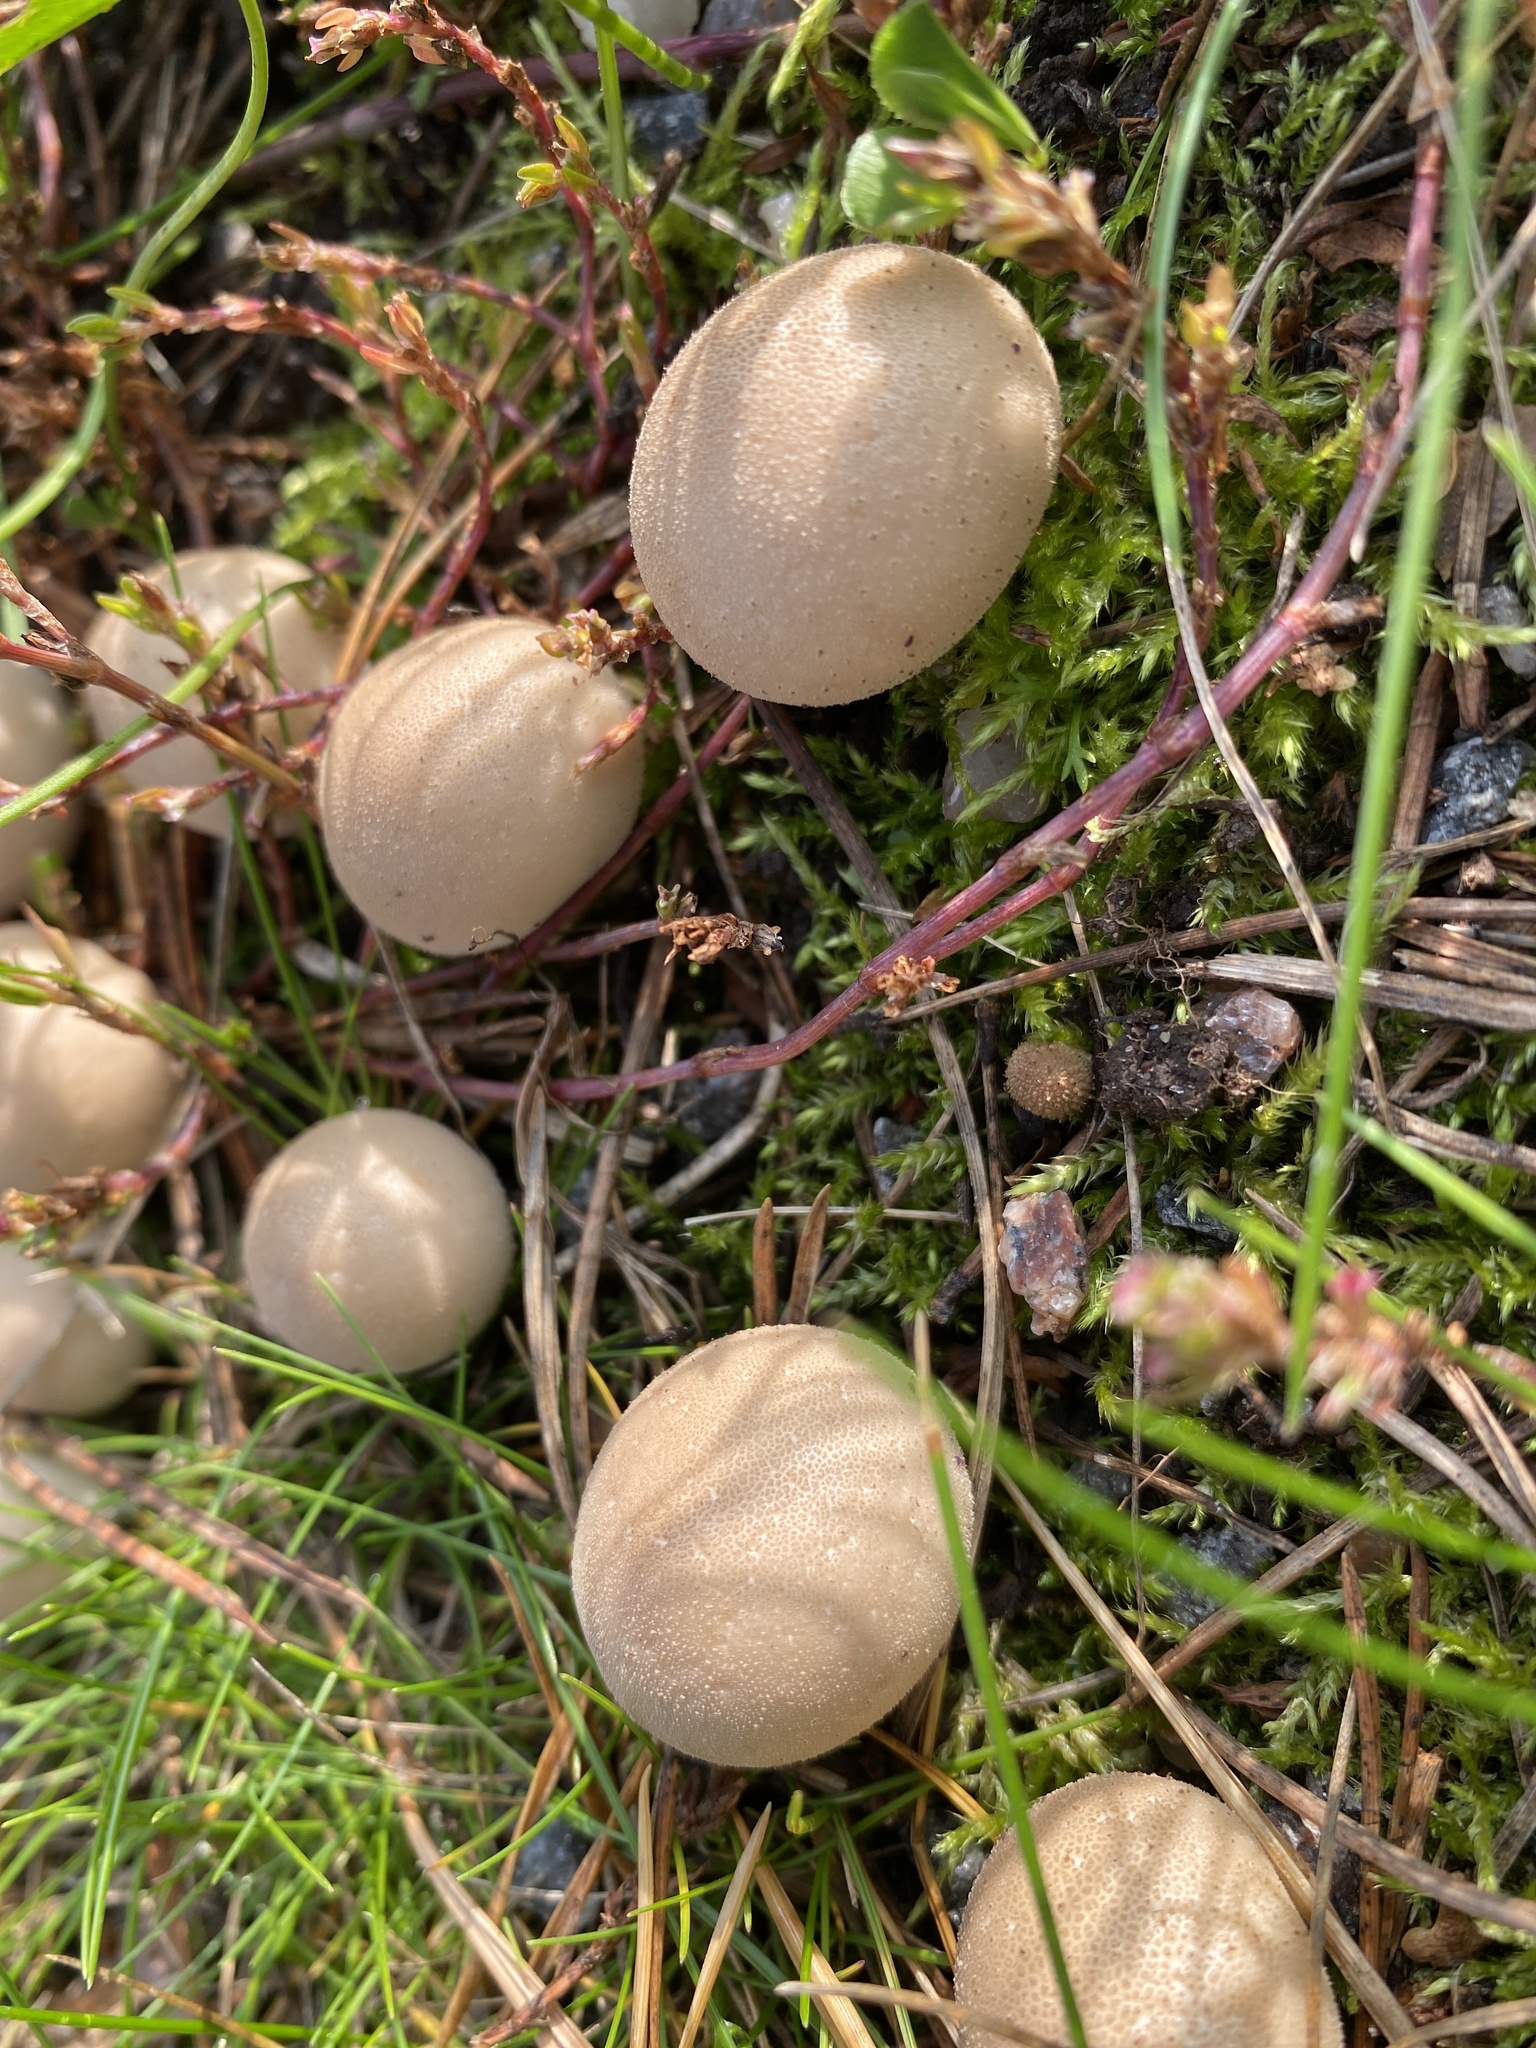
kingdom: Fungi
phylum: Basidiomycota
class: Agaricomycetes
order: Agaricales
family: Lycoperdaceae
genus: Apioperdon
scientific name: Apioperdon pyriforme
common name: Pear-shaped puffball
